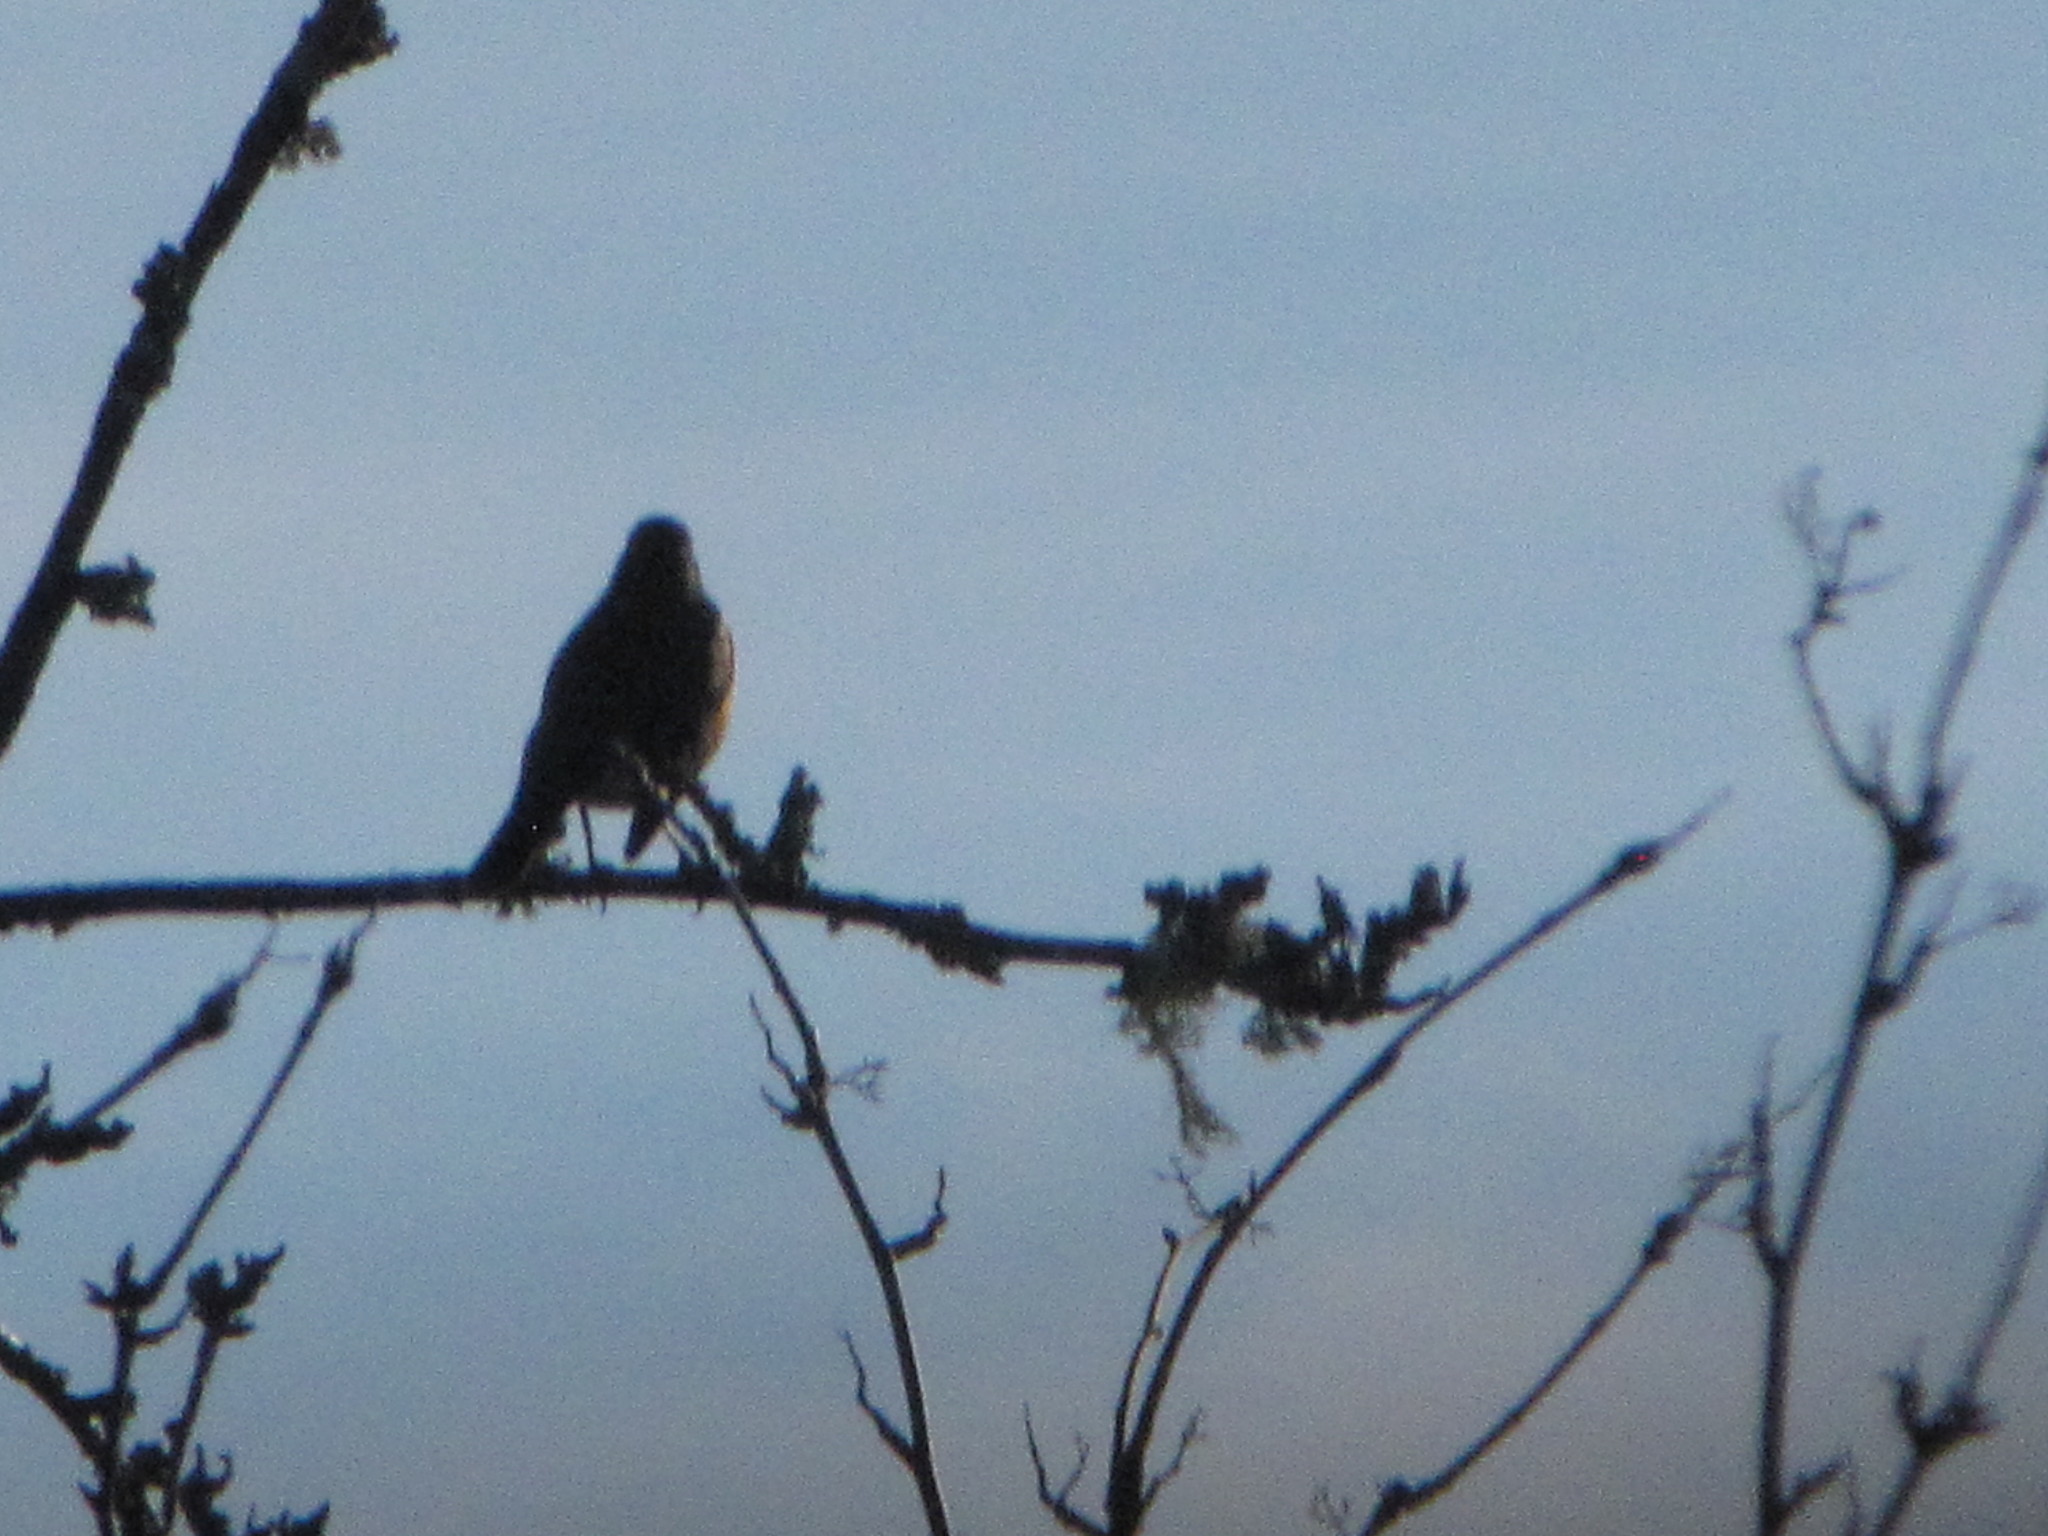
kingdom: Animalia
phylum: Chordata
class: Aves
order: Passeriformes
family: Turdidae
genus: Turdus
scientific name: Turdus migratorius
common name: American robin
